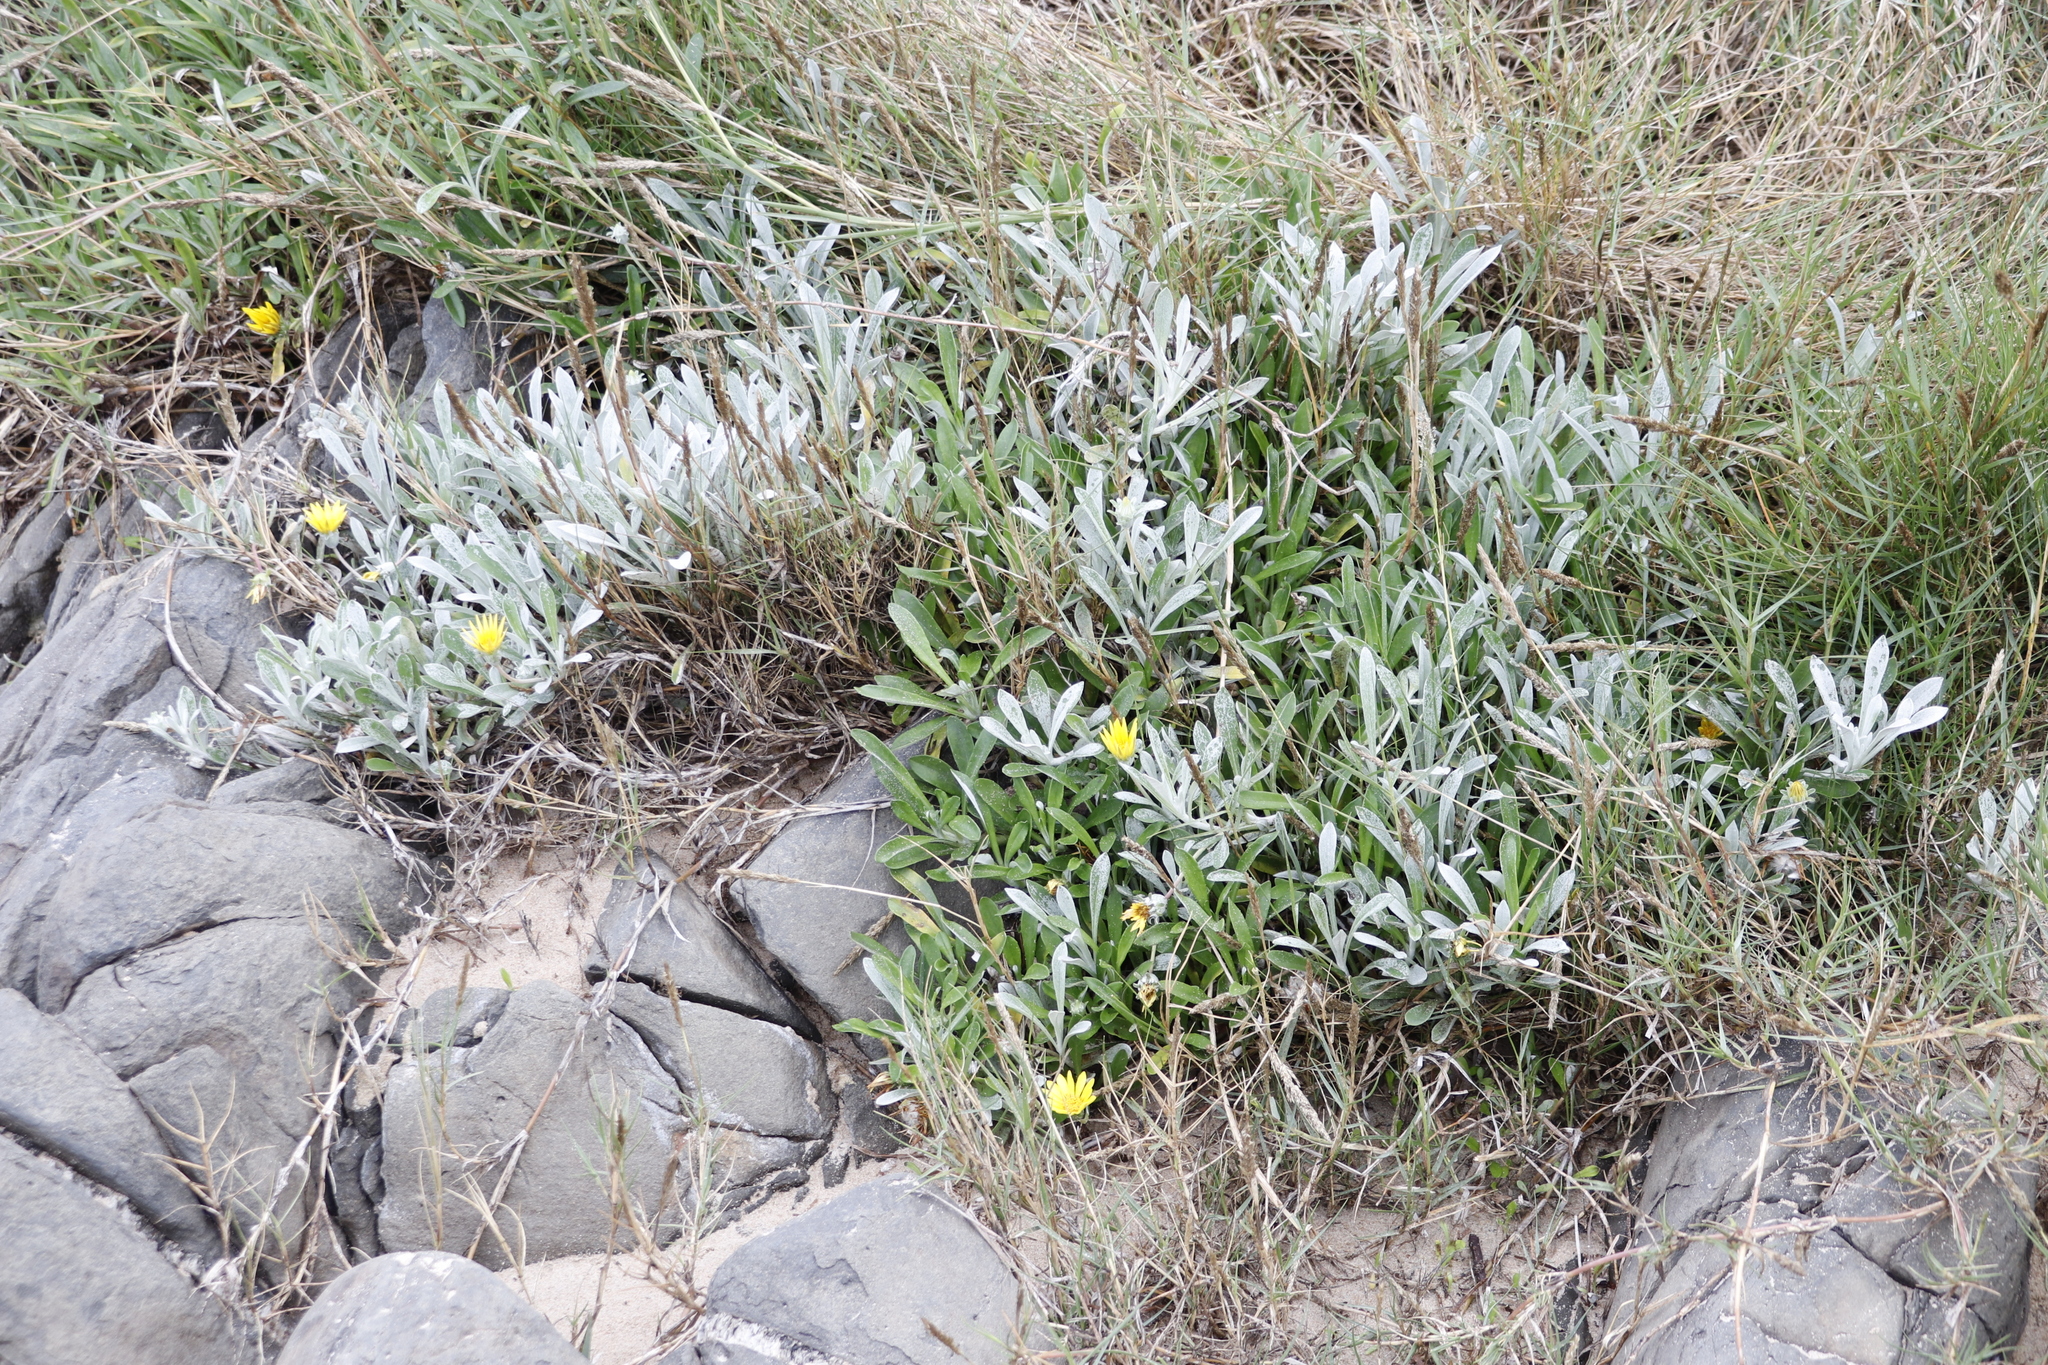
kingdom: Plantae
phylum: Tracheophyta
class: Magnoliopsida
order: Asterales
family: Asteraceae
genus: Gazania
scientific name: Gazania rigens
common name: Treasureflower
